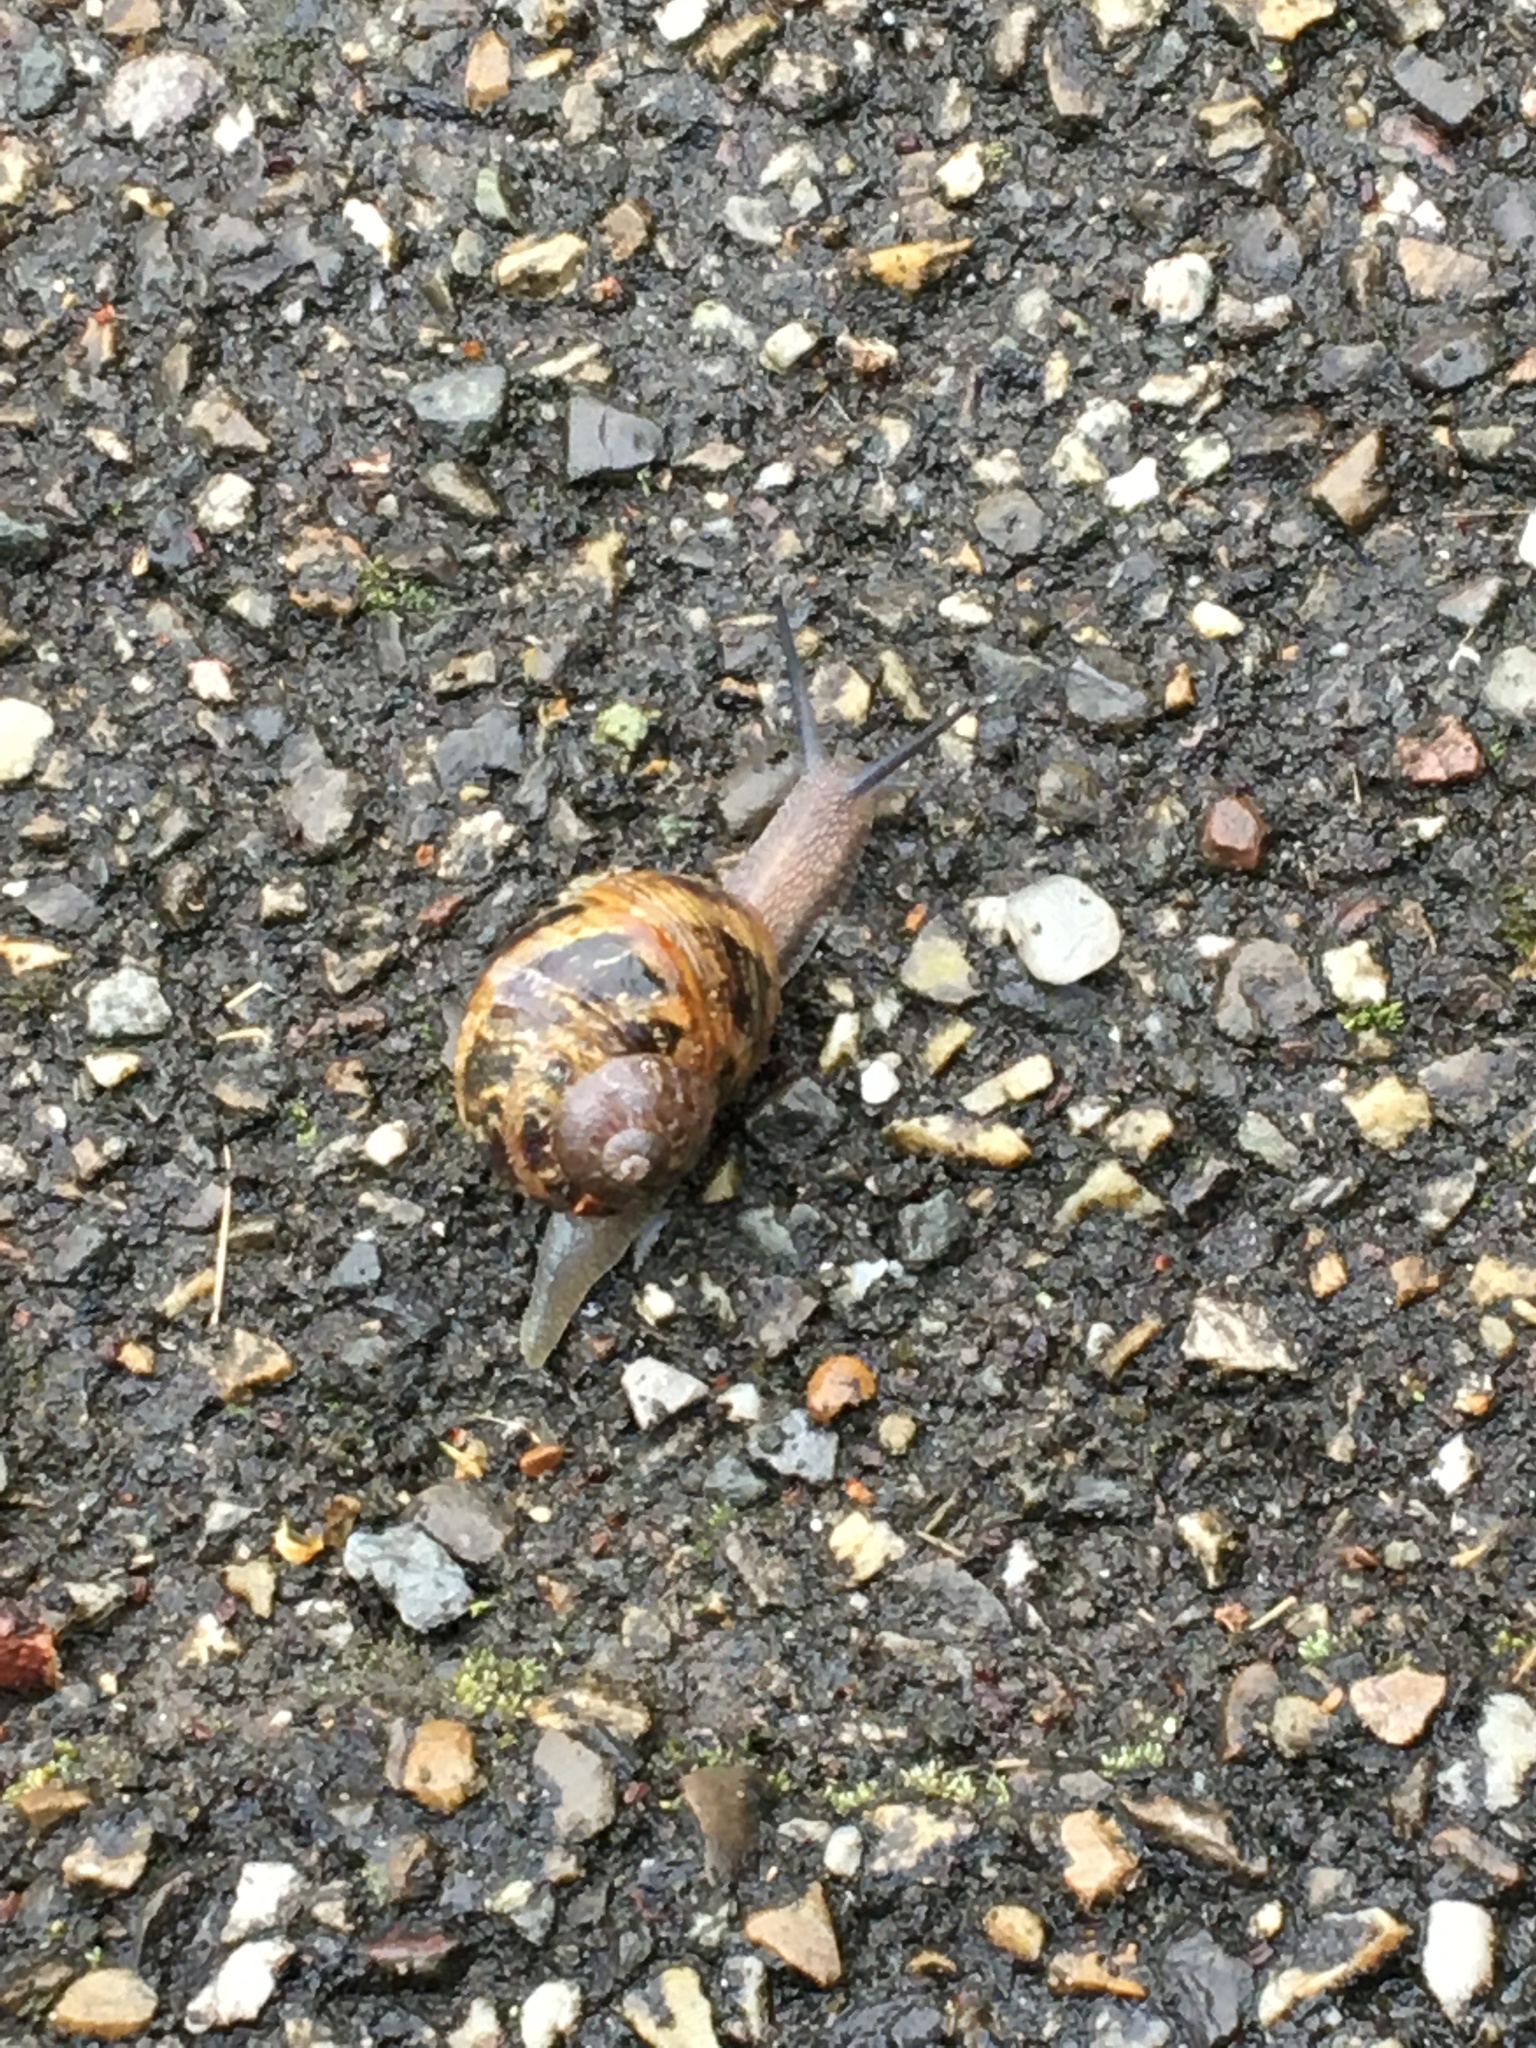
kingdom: Animalia
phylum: Mollusca
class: Gastropoda
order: Stylommatophora
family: Helicidae
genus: Cornu
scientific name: Cornu aspersum
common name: Brown garden snail
